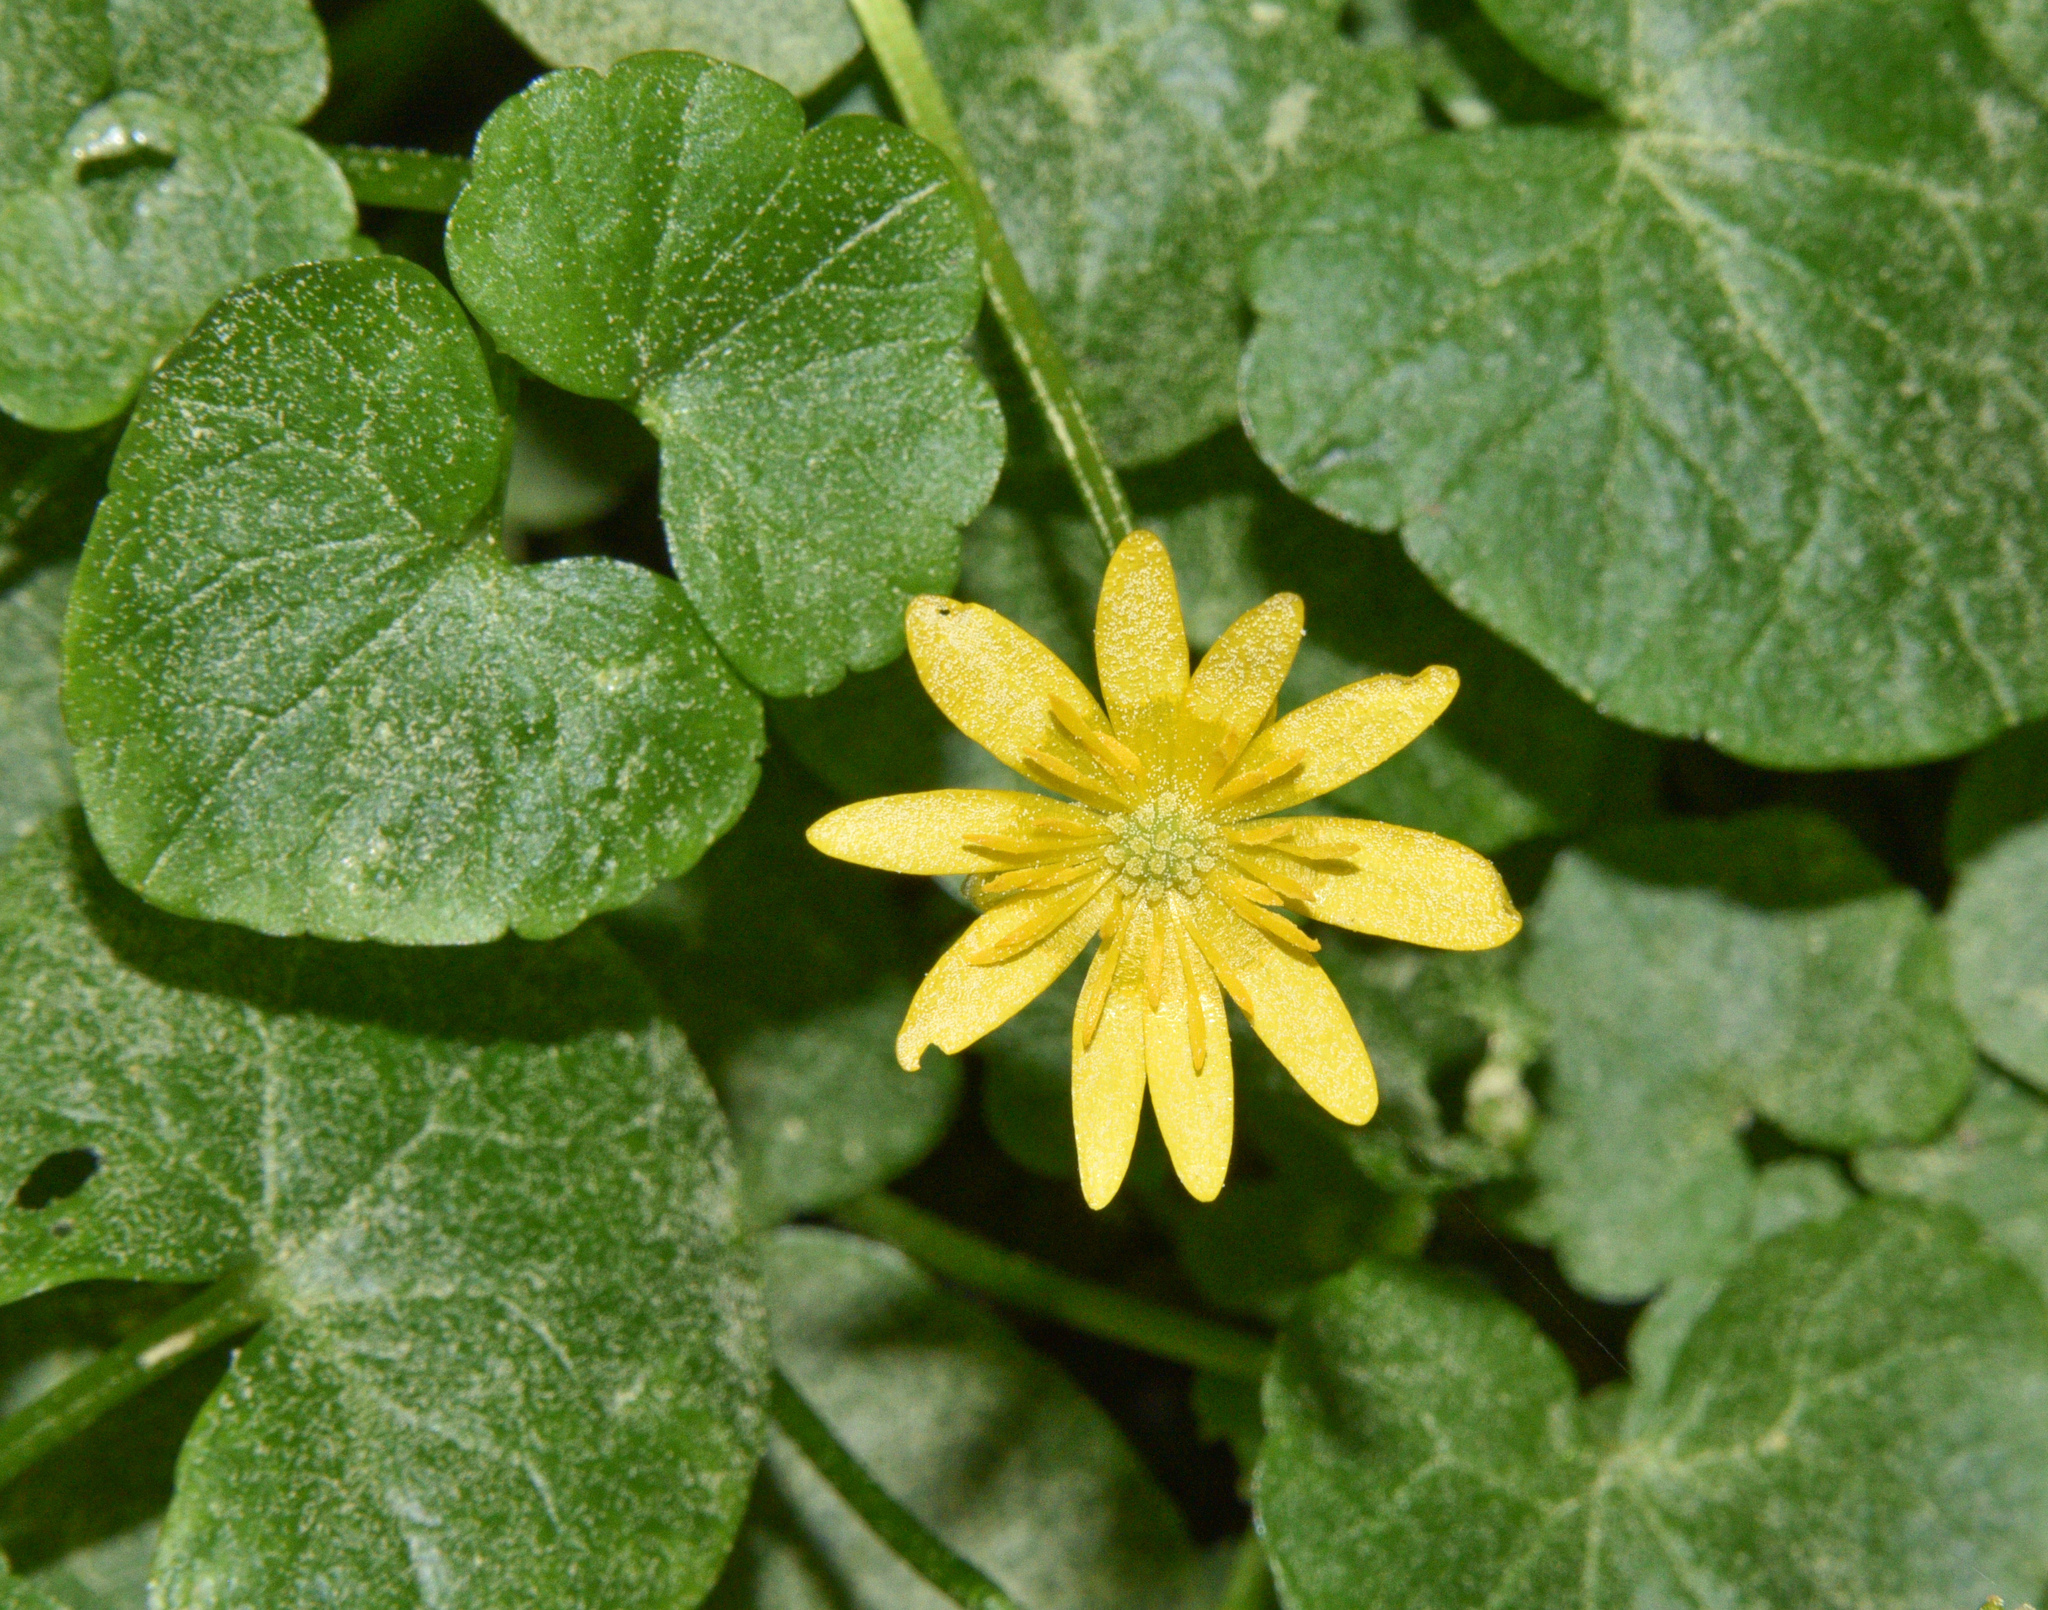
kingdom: Plantae
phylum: Tracheophyta
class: Magnoliopsida
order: Ranunculales
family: Ranunculaceae
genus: Ficaria
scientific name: Ficaria verna
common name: Lesser celandine
